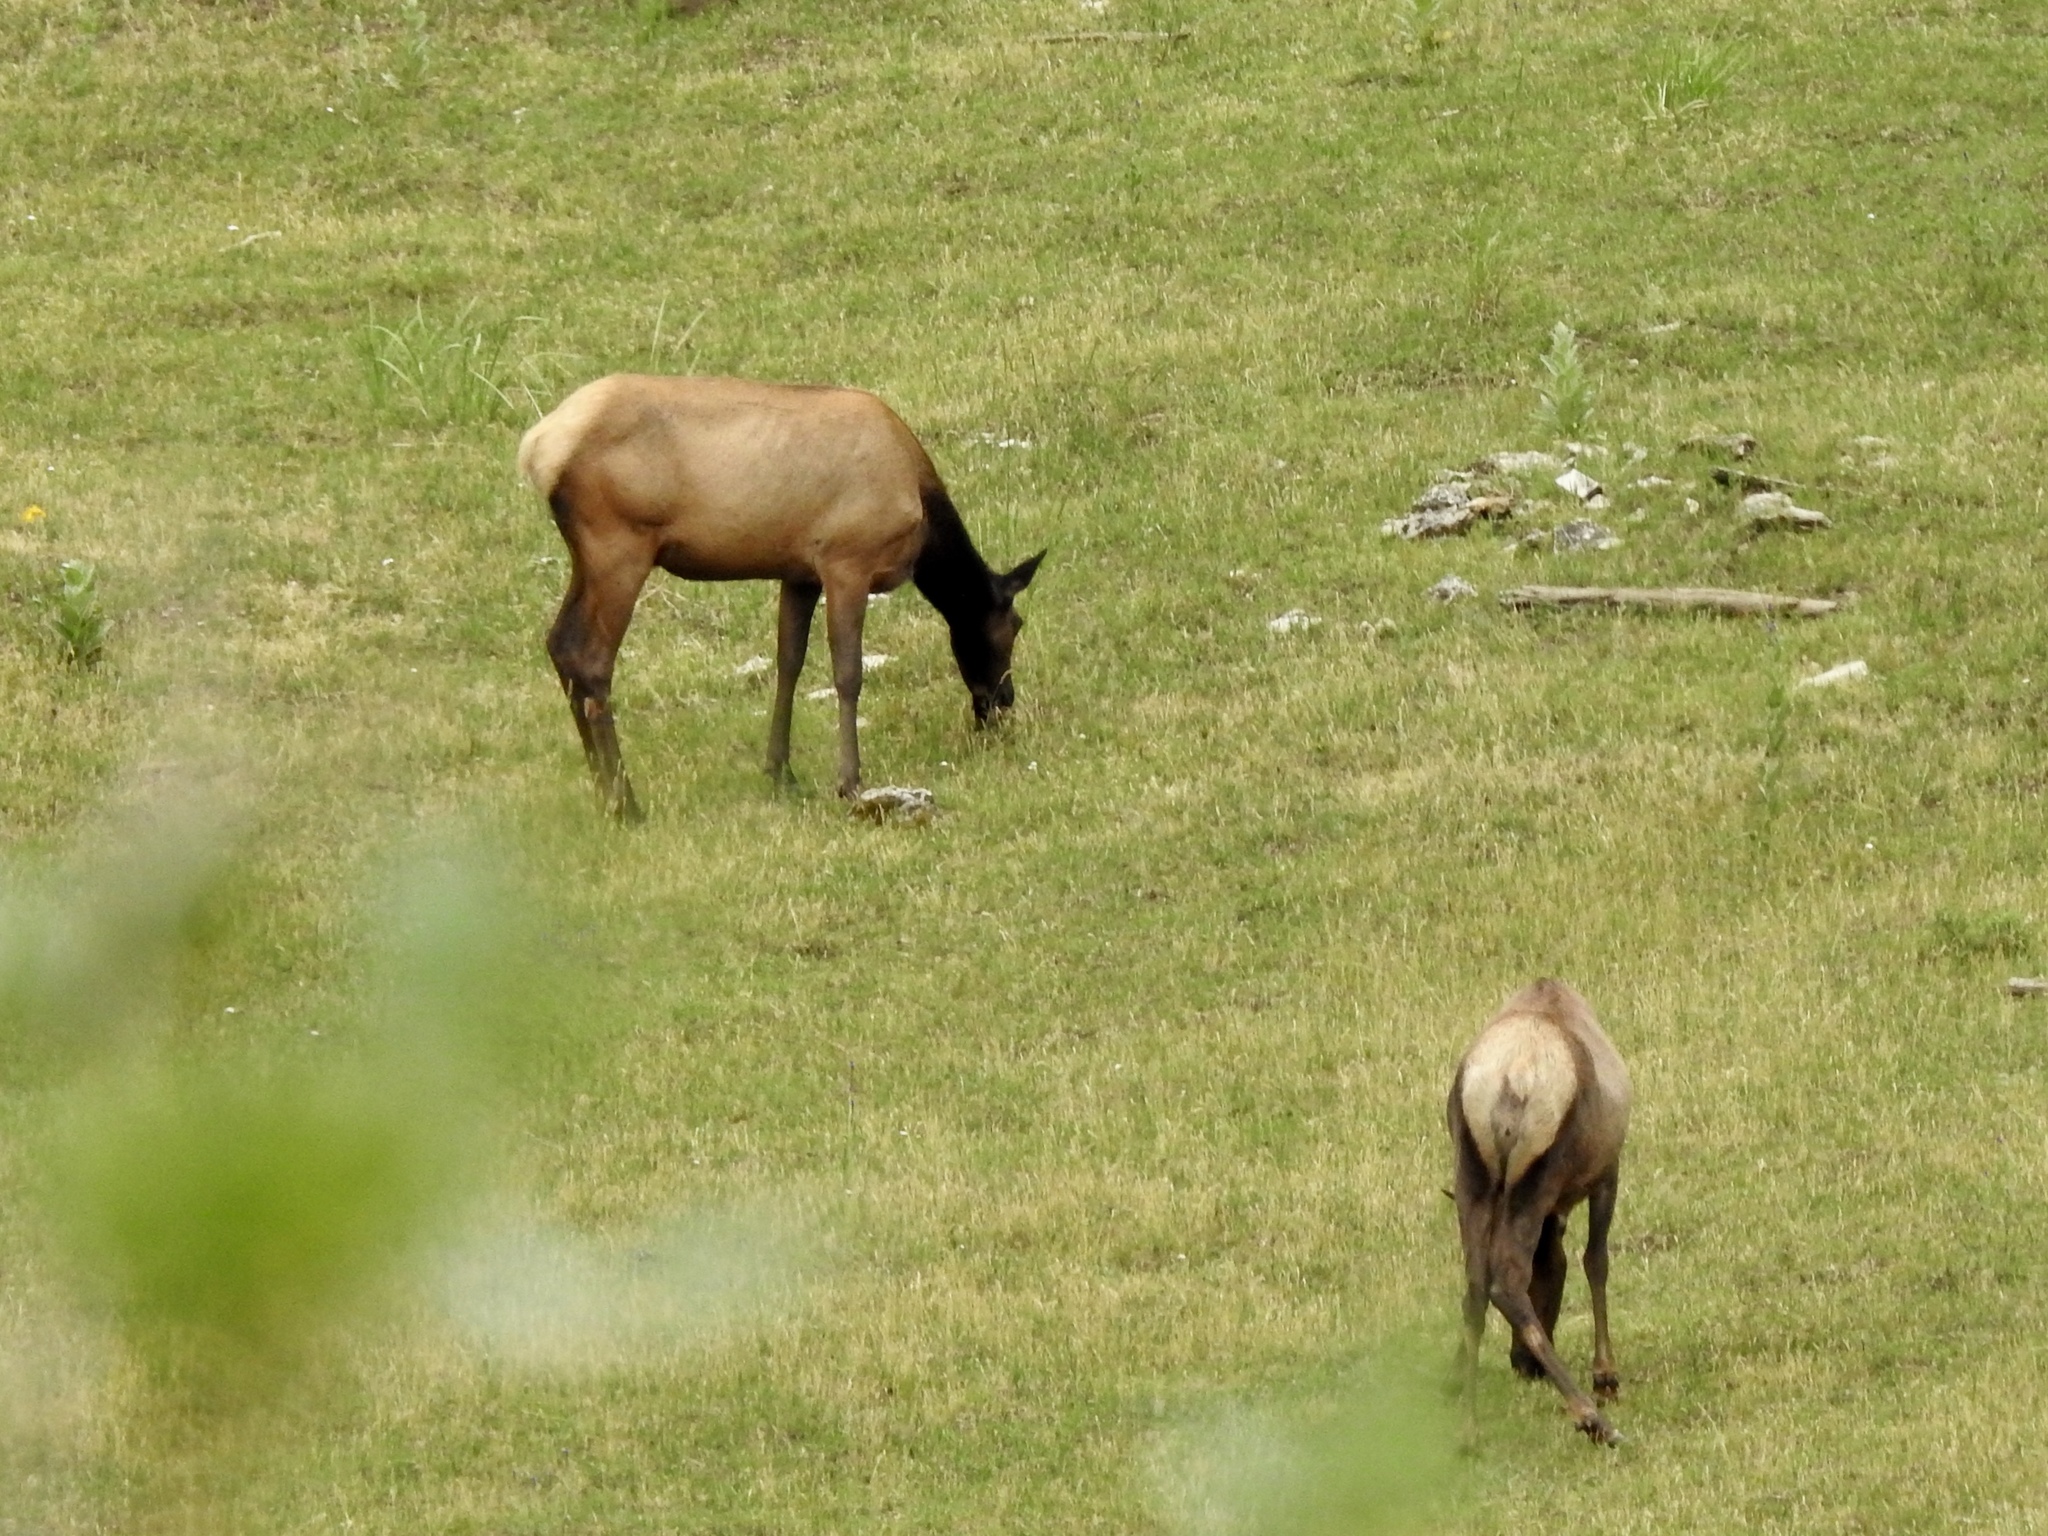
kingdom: Animalia
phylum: Chordata
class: Mammalia
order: Artiodactyla
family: Cervidae
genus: Cervus
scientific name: Cervus elaphus
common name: Red deer
